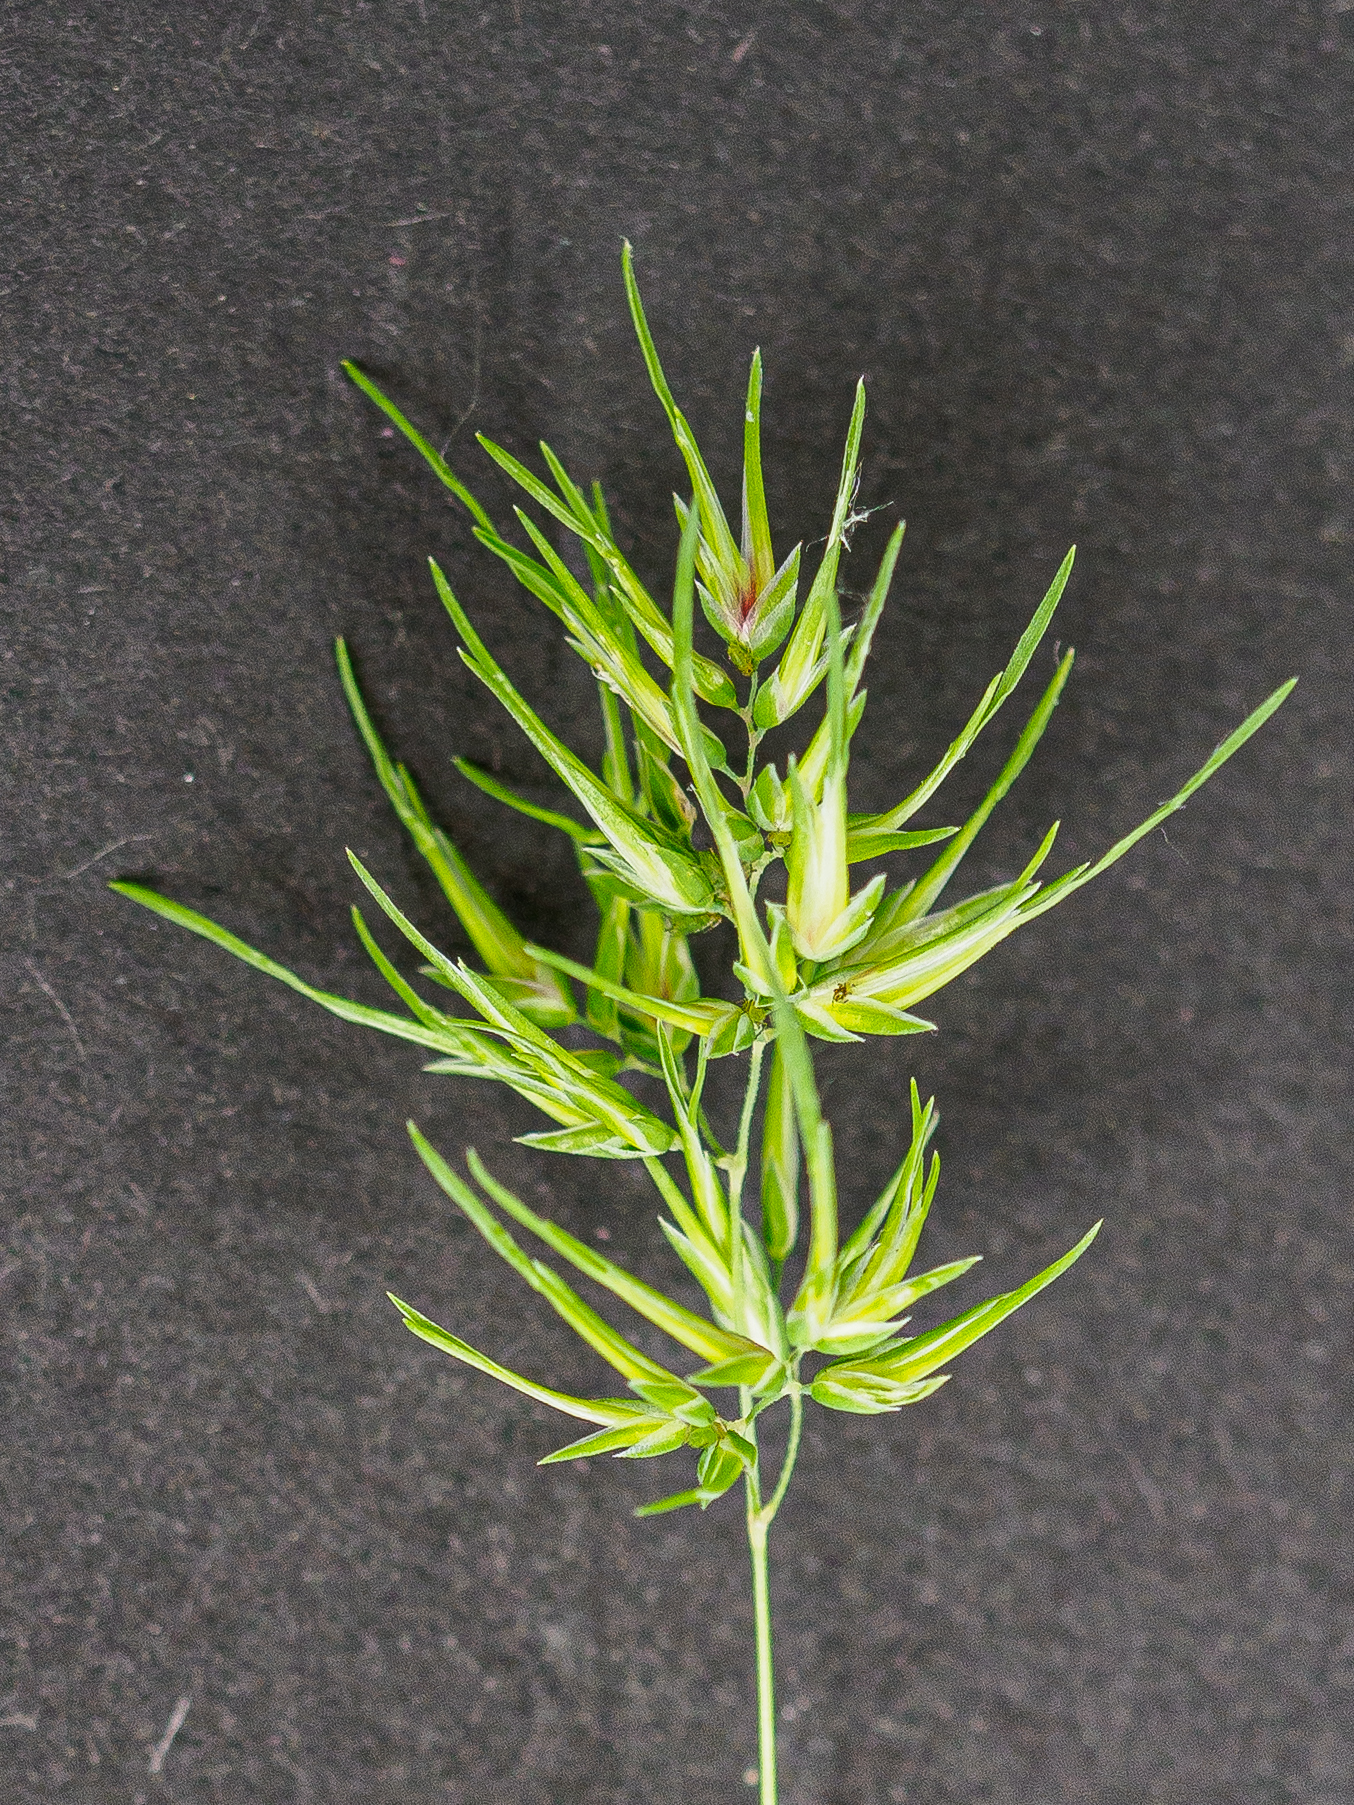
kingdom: Plantae
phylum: Tracheophyta
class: Liliopsida
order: Poales
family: Poaceae
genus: Poa
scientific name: Poa bulbosa
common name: Bulbous bluegrass
